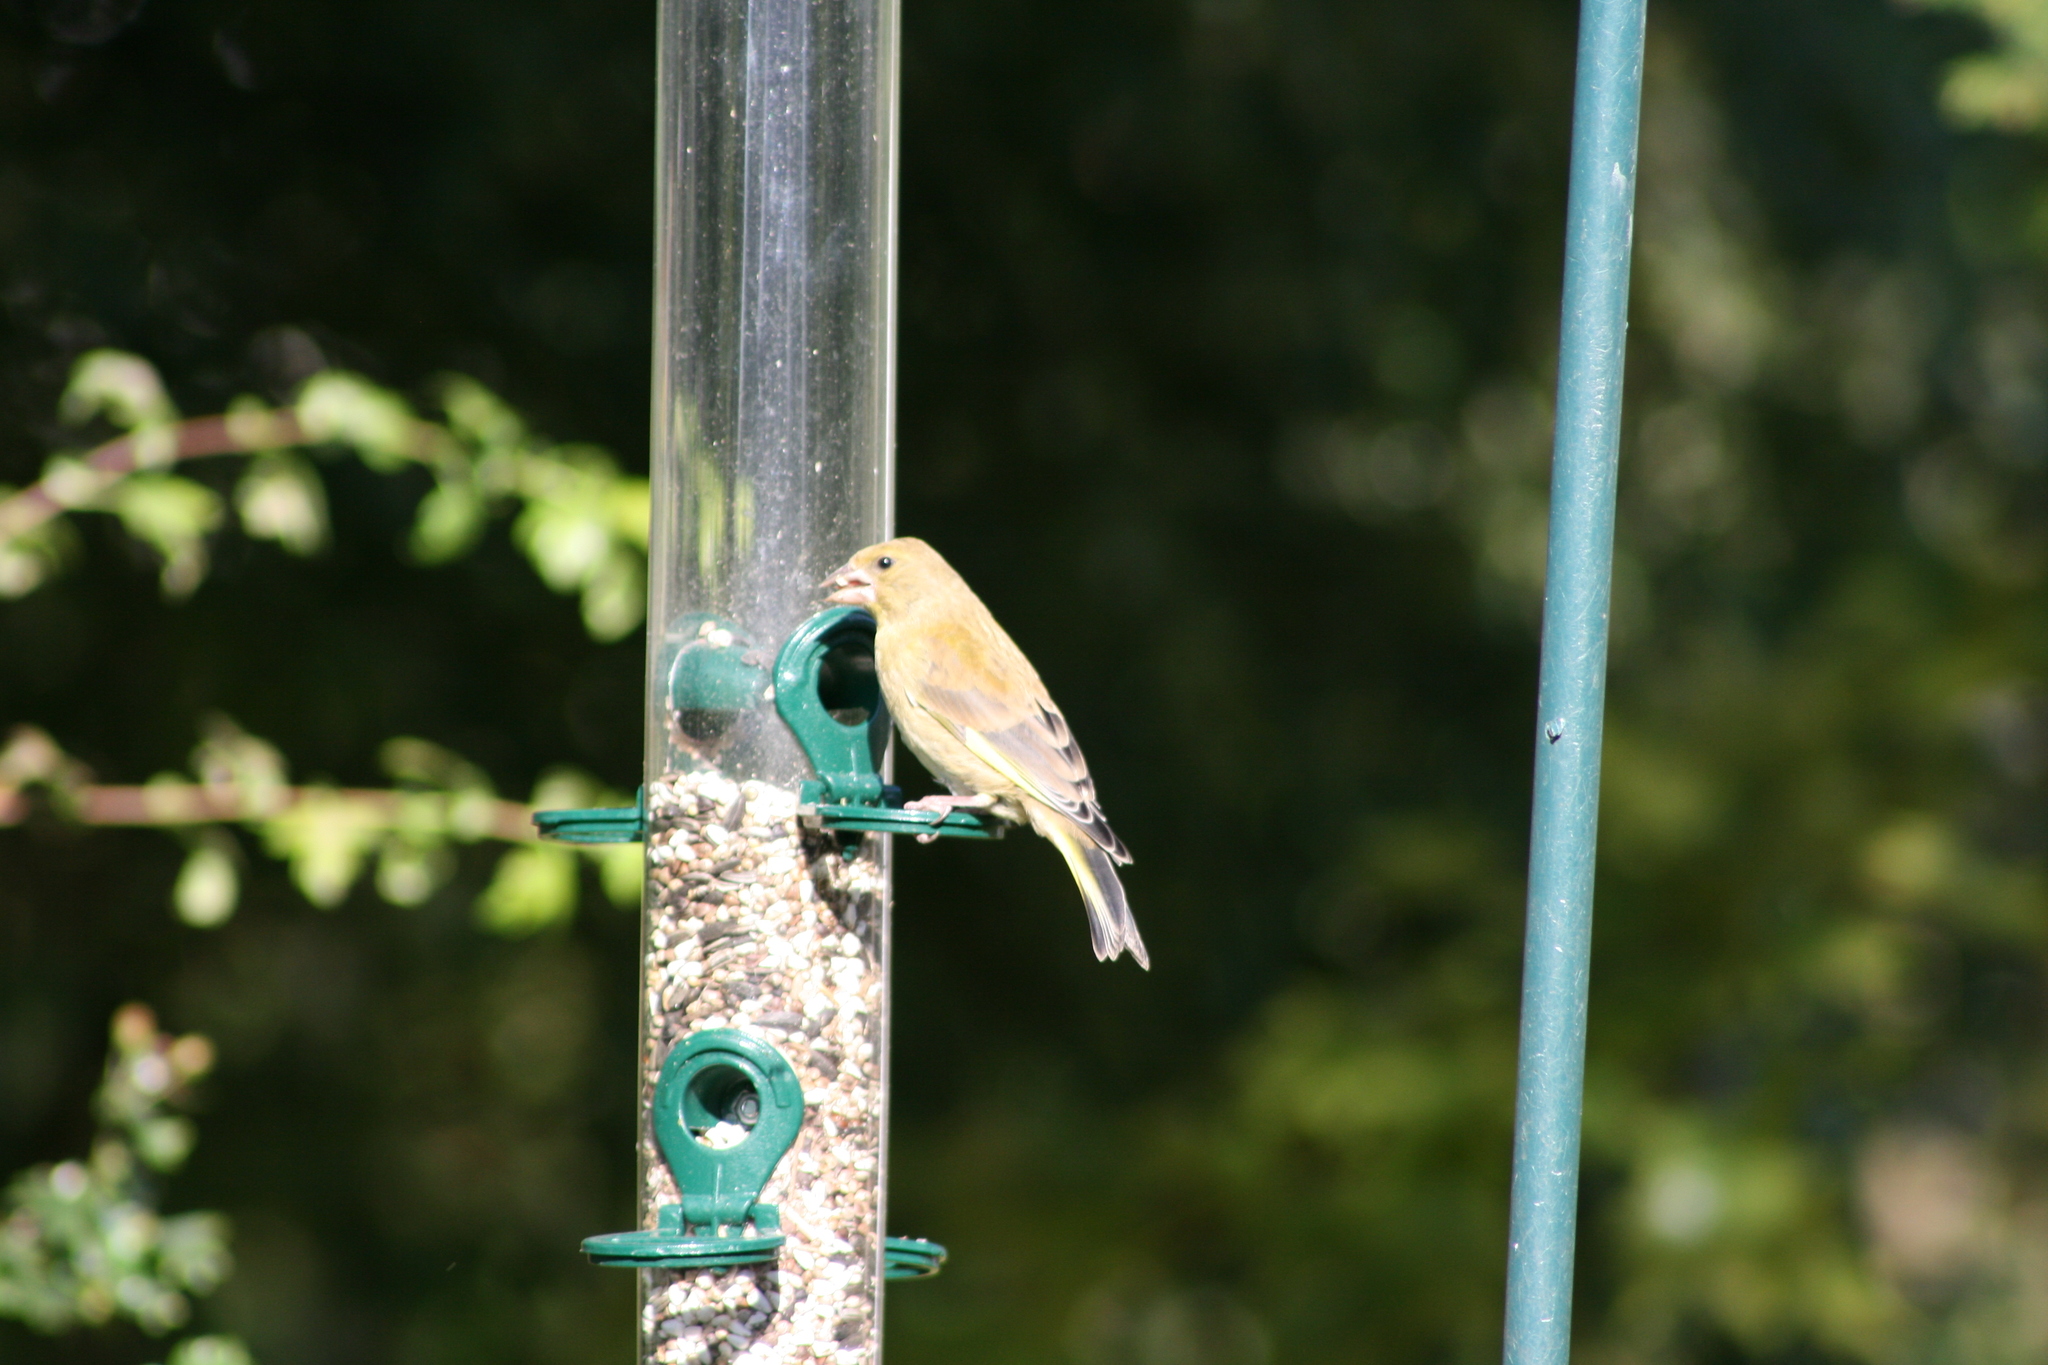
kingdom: Plantae
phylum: Tracheophyta
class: Liliopsida
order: Poales
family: Poaceae
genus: Chloris
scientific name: Chloris chloris
